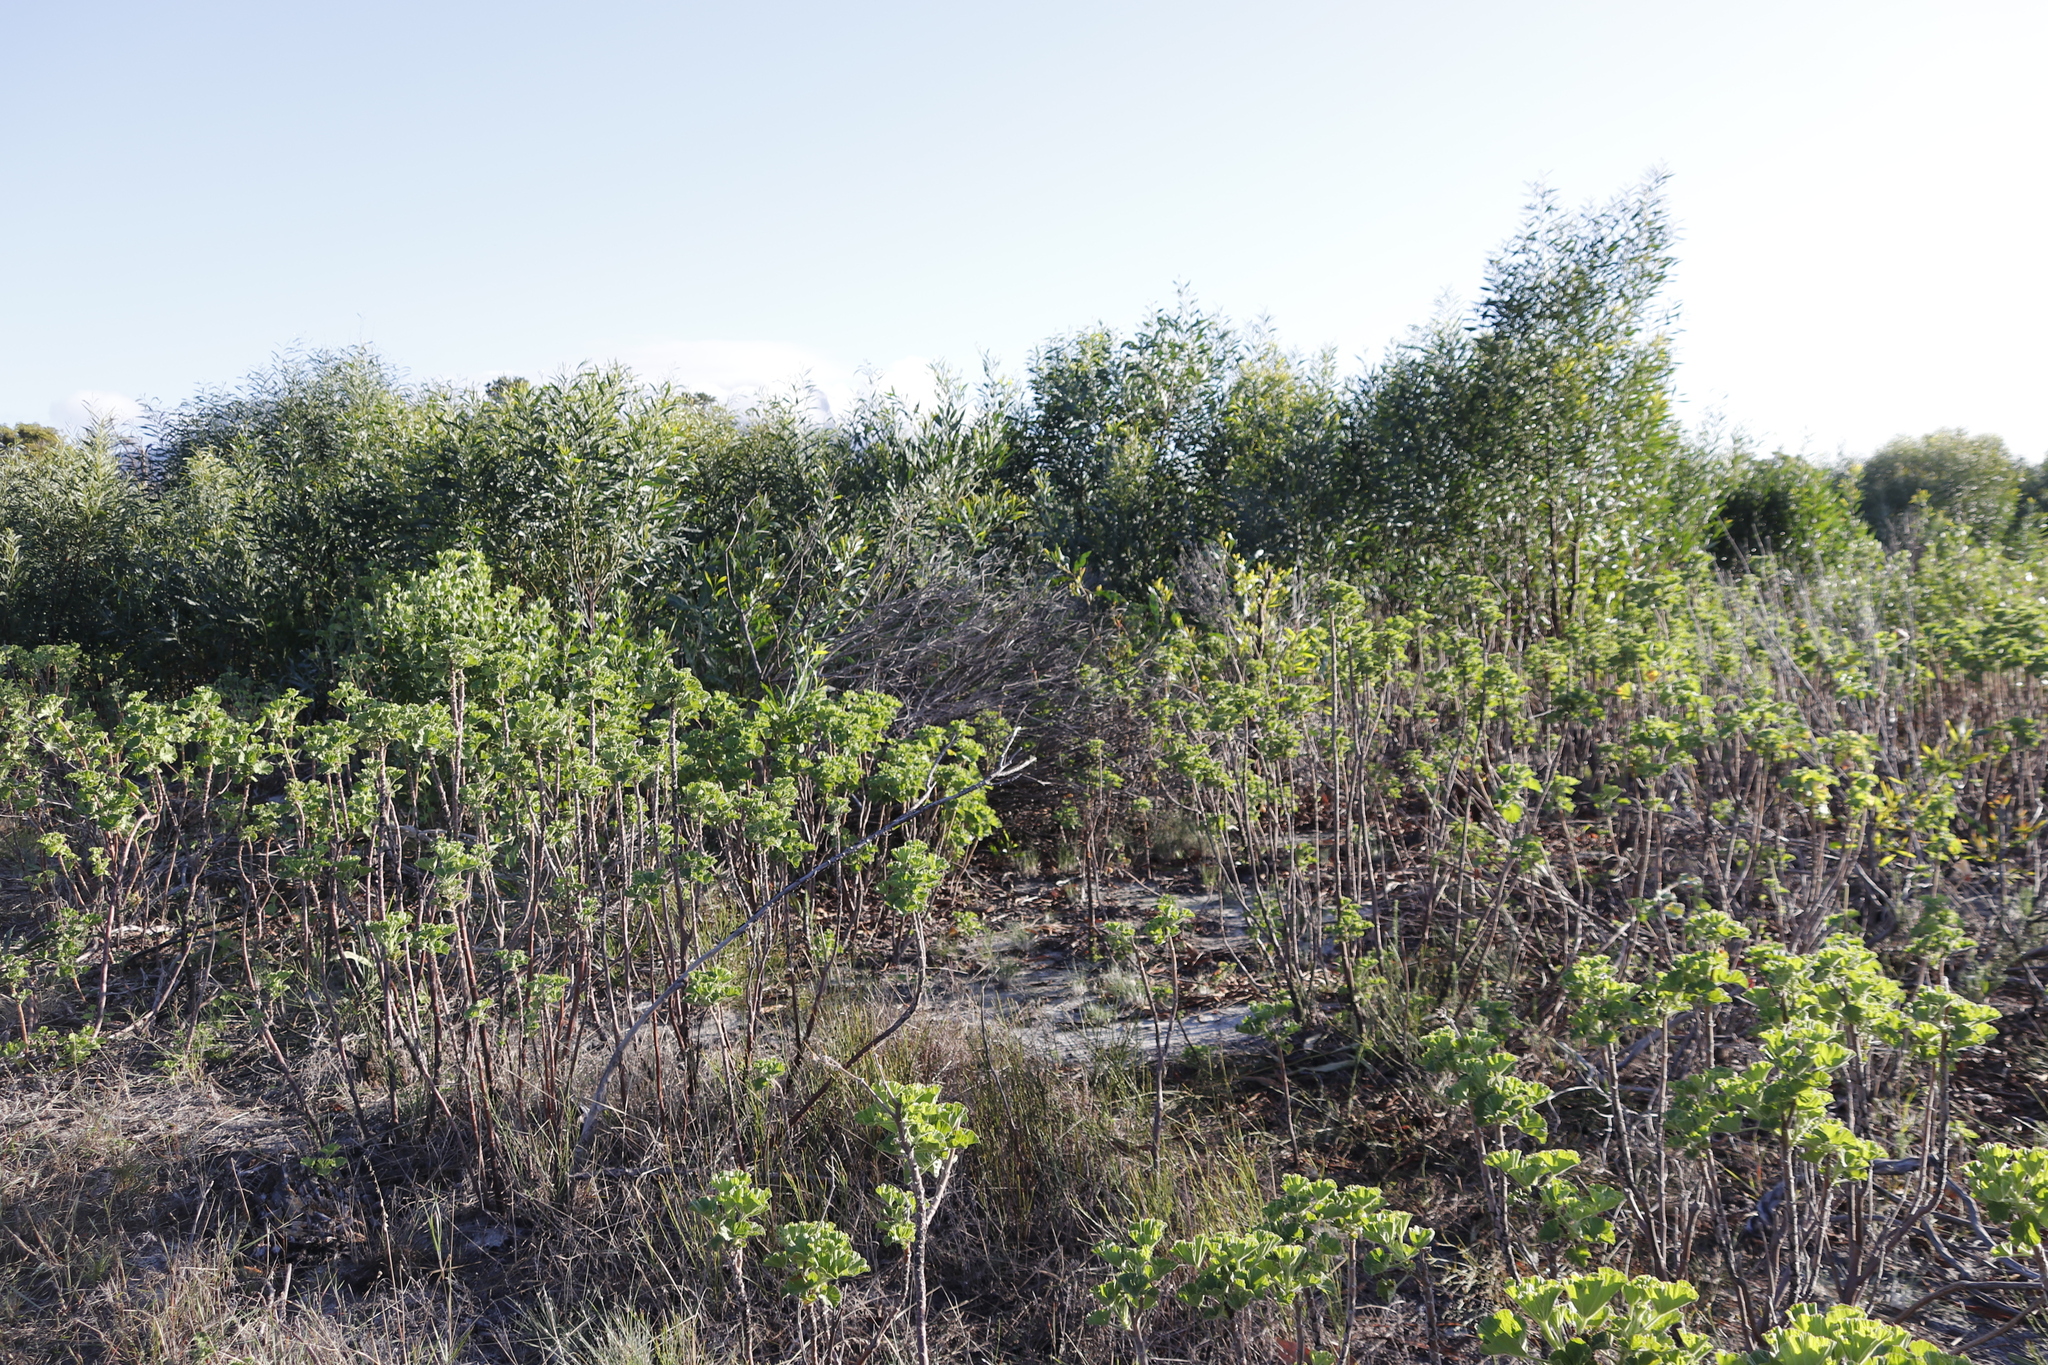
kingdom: Plantae
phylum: Tracheophyta
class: Magnoliopsida
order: Fabales
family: Fabaceae
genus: Acacia
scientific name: Acacia saligna
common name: Orange wattle
